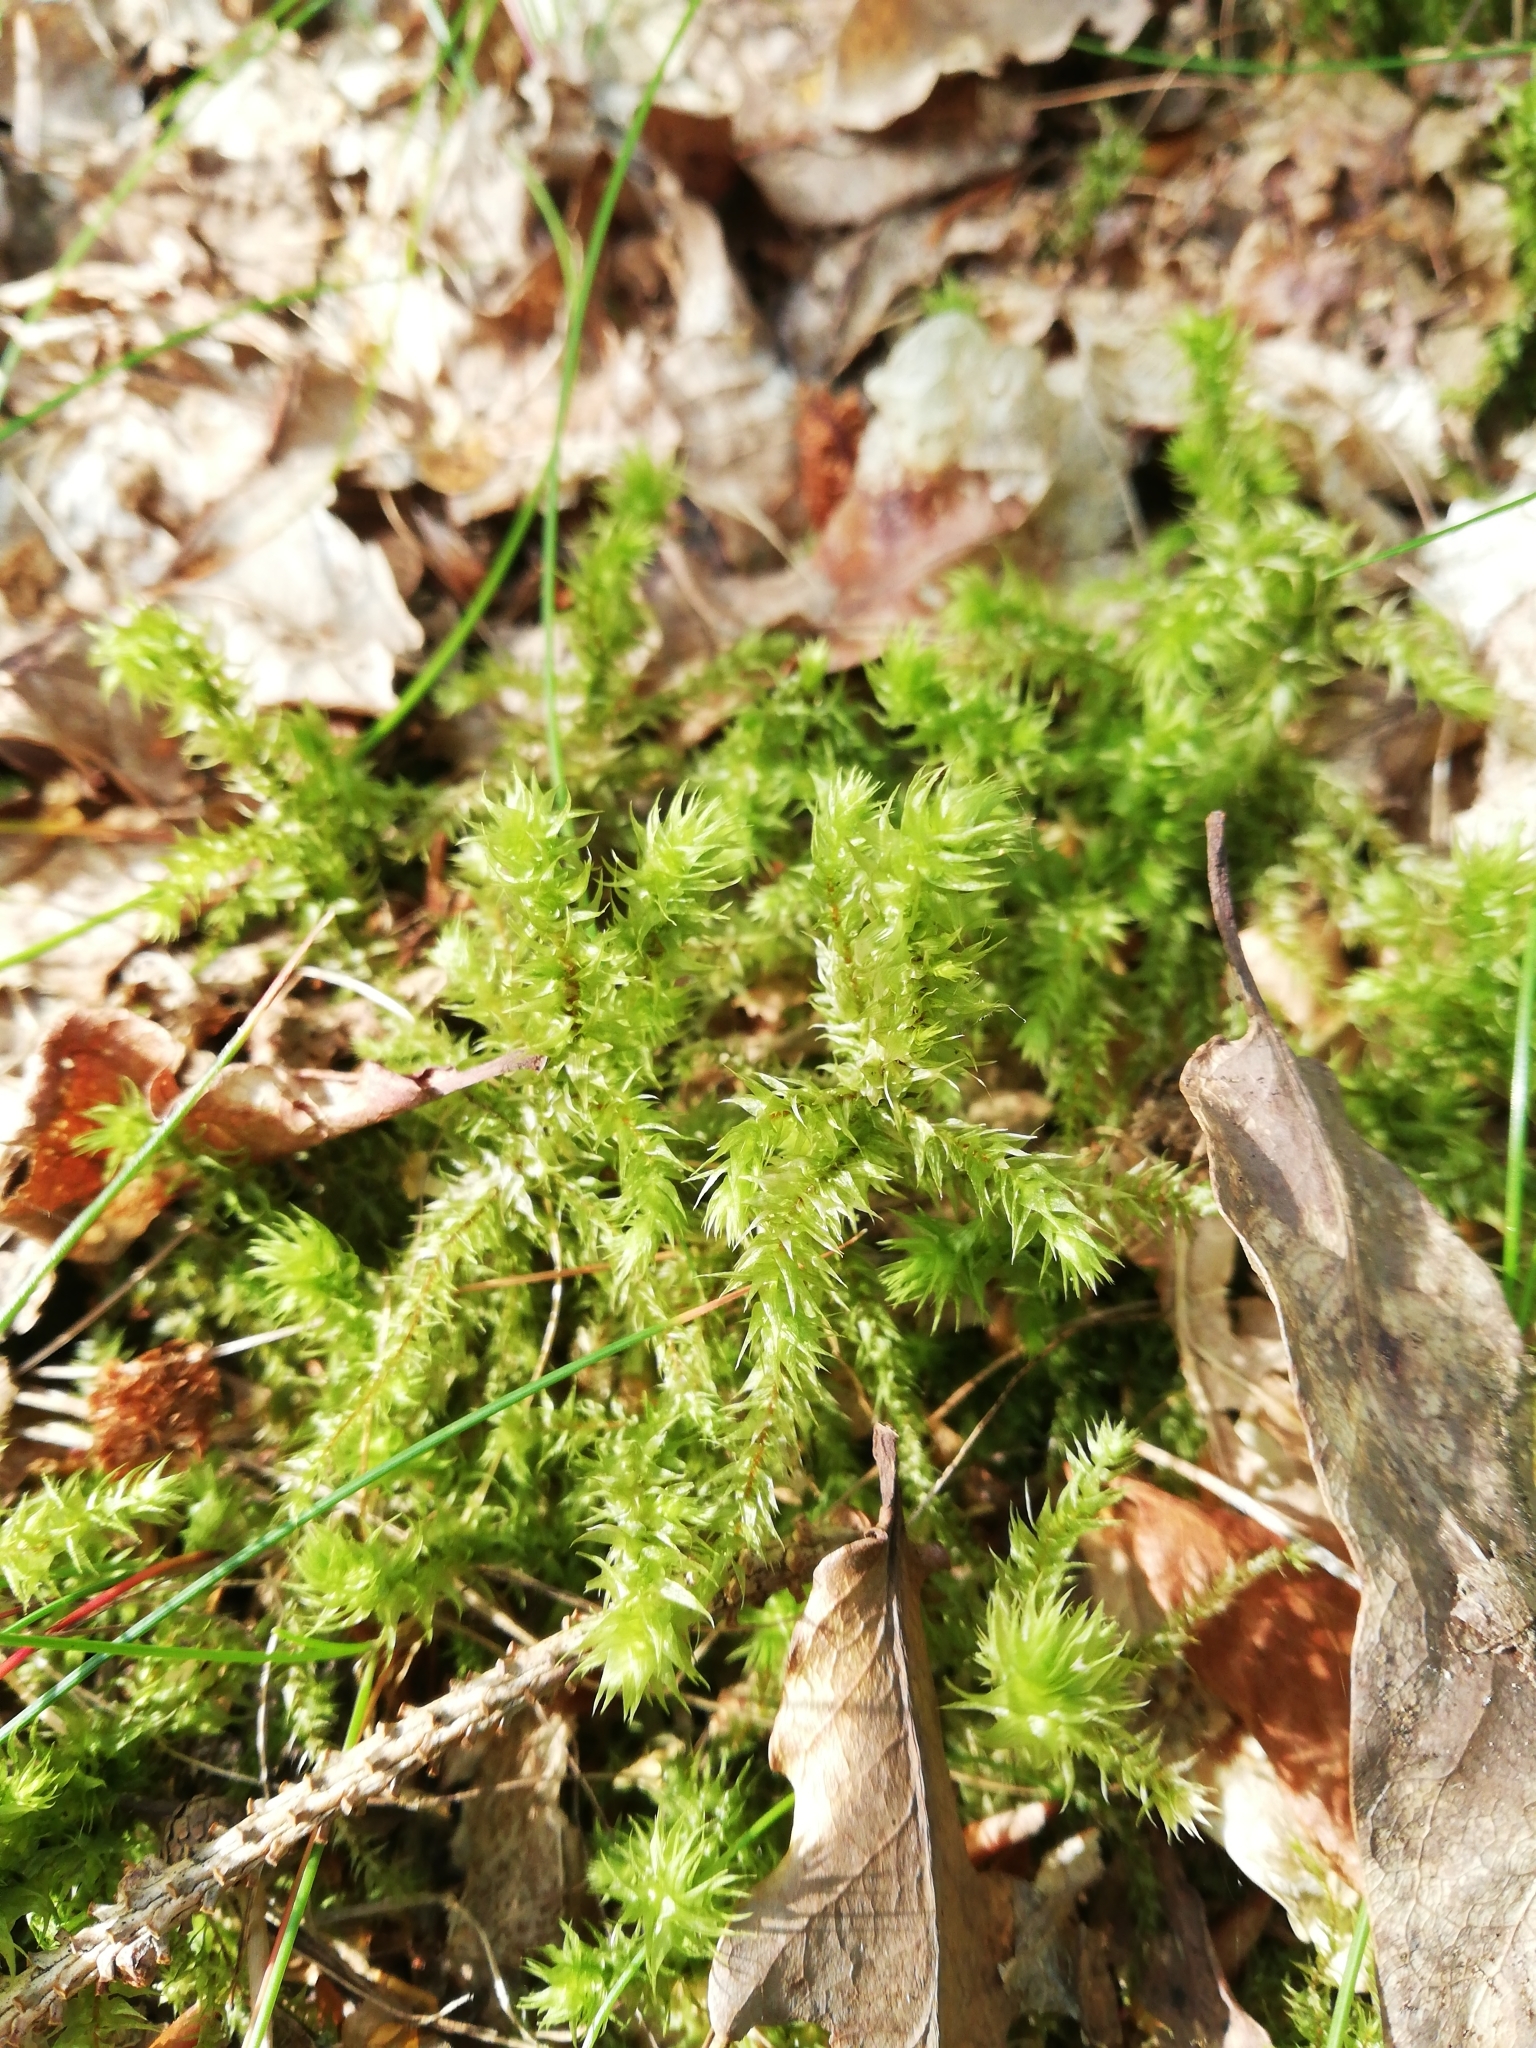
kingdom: Plantae
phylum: Bryophyta
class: Bryopsida
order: Hypnales
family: Hylocomiaceae
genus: Hylocomiadelphus
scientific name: Hylocomiadelphus triquetrus
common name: Rough goose neck moss
